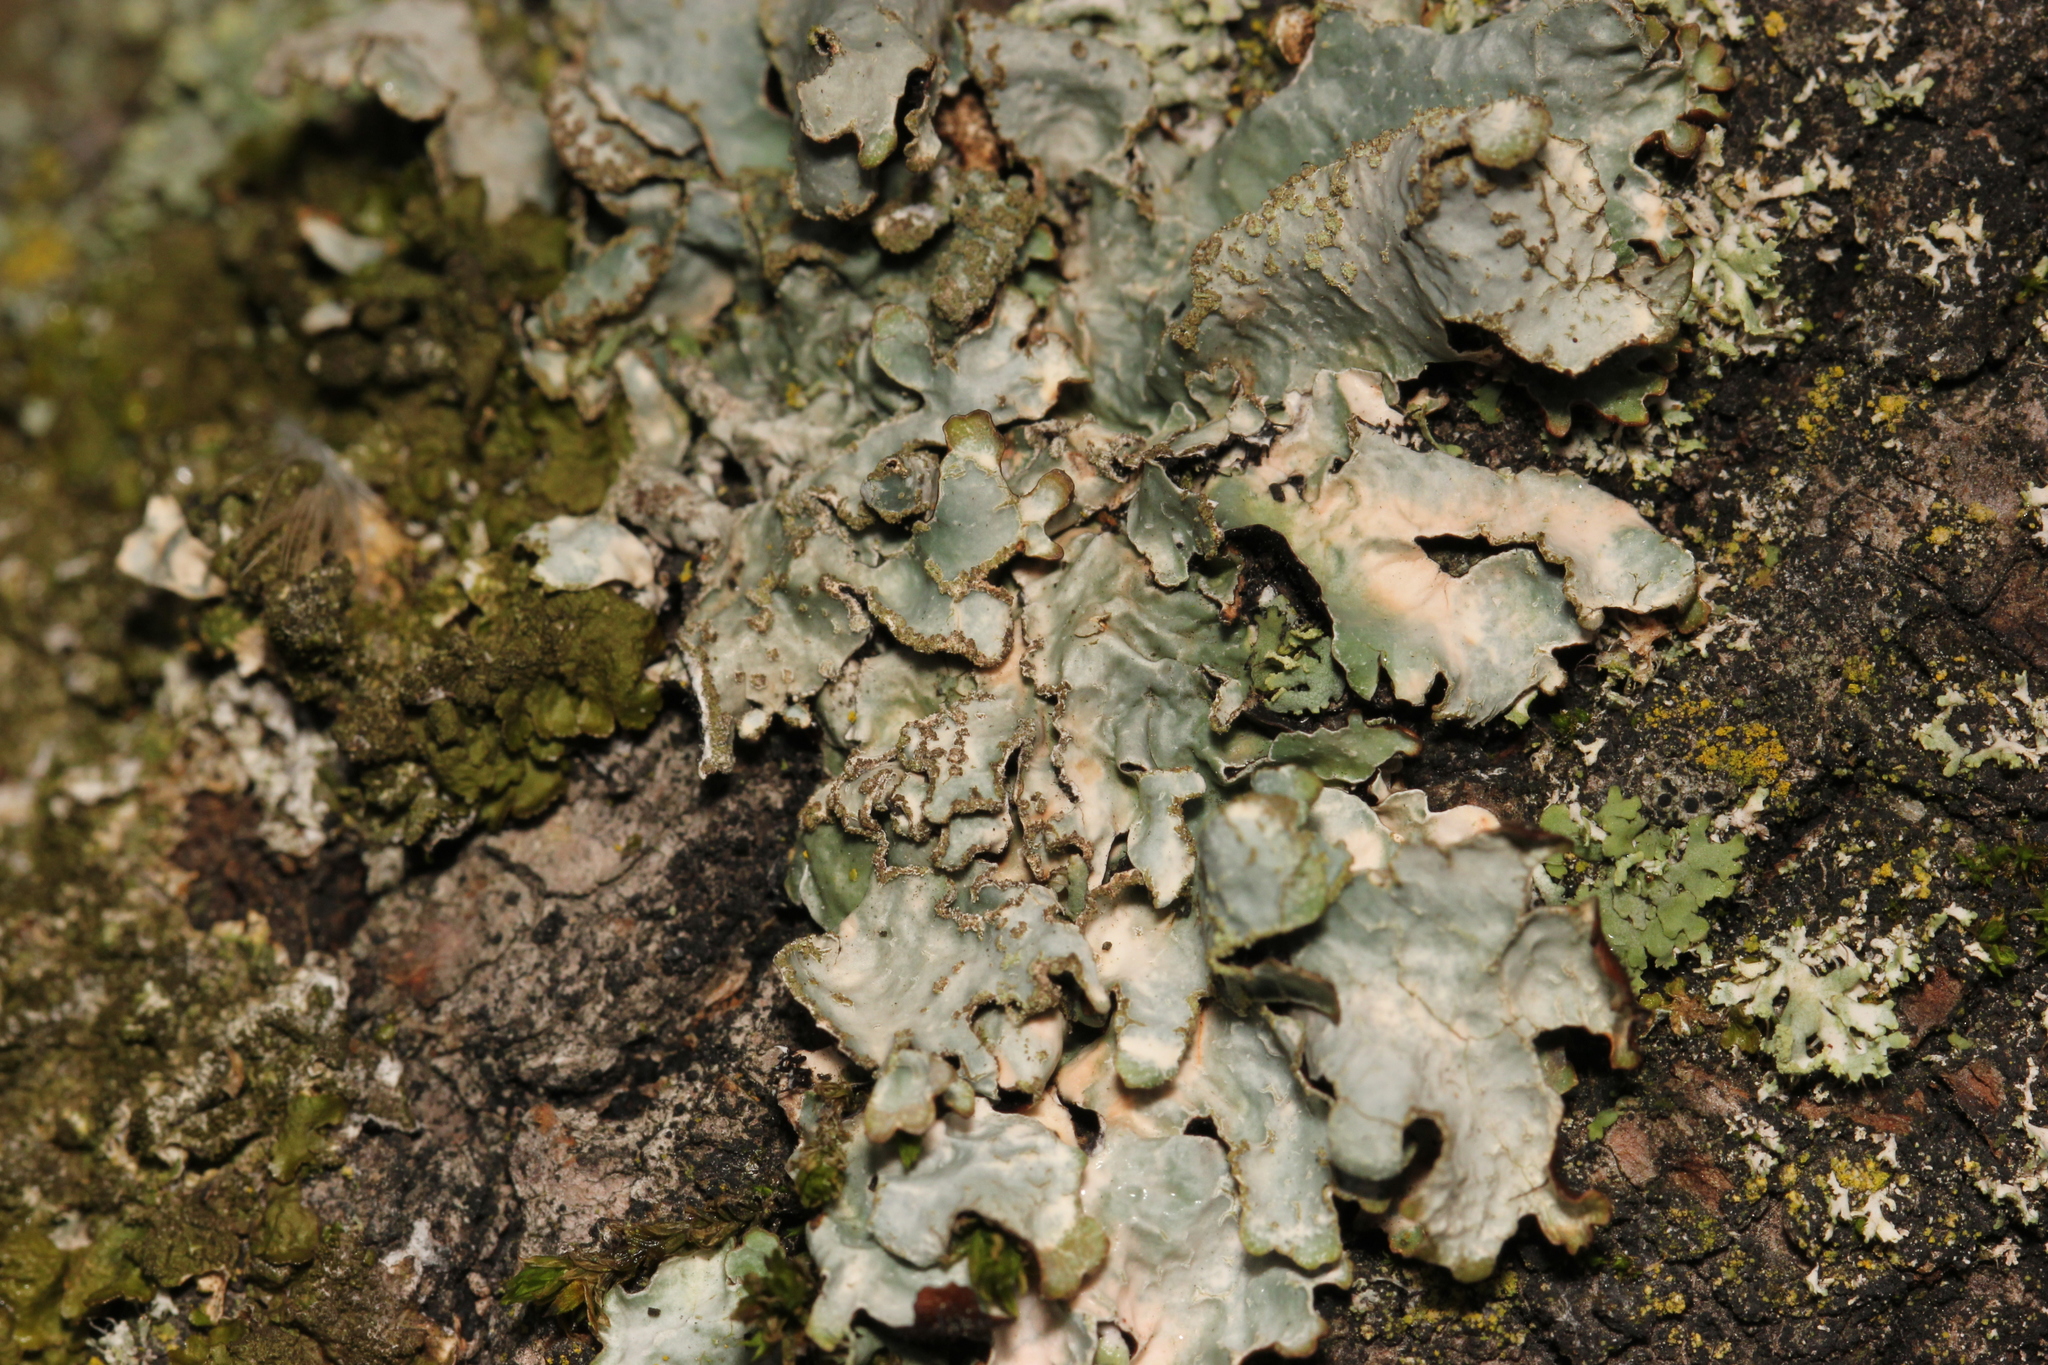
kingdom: Fungi
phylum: Ascomycota
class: Lecanoromycetes
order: Lecanorales
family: Parmeliaceae
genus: Parmelia
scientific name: Parmelia sulcata
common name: Netted shield lichen
